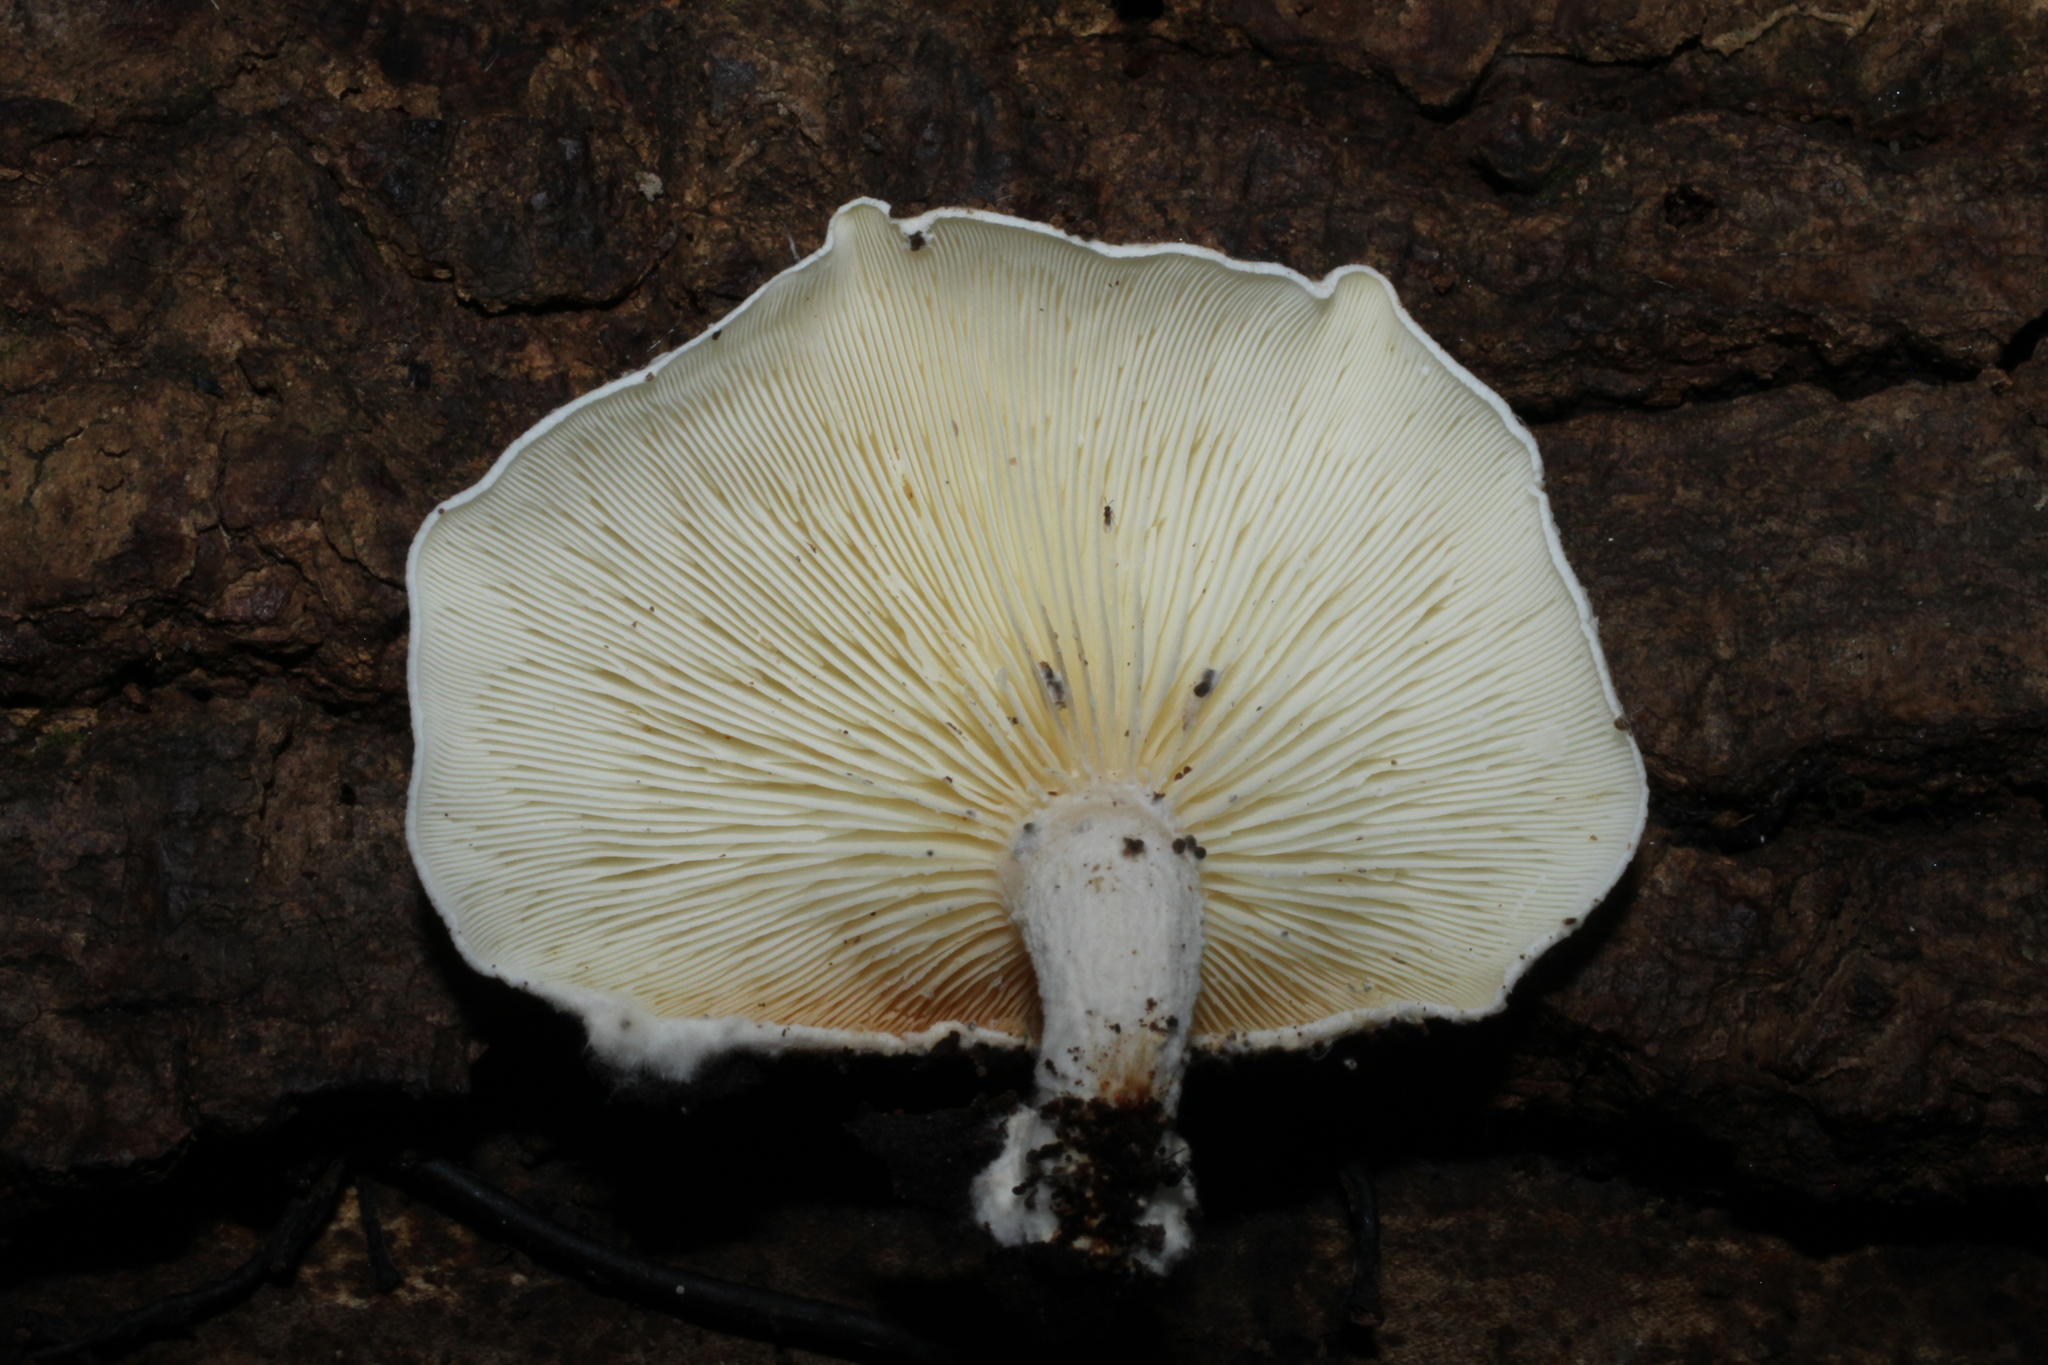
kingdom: Fungi
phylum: Basidiomycota
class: Agaricomycetes
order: Agaricales
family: Lyophyllaceae
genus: Ossicaulis
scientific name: Ossicaulis lignatilis
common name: Mealy oyster
